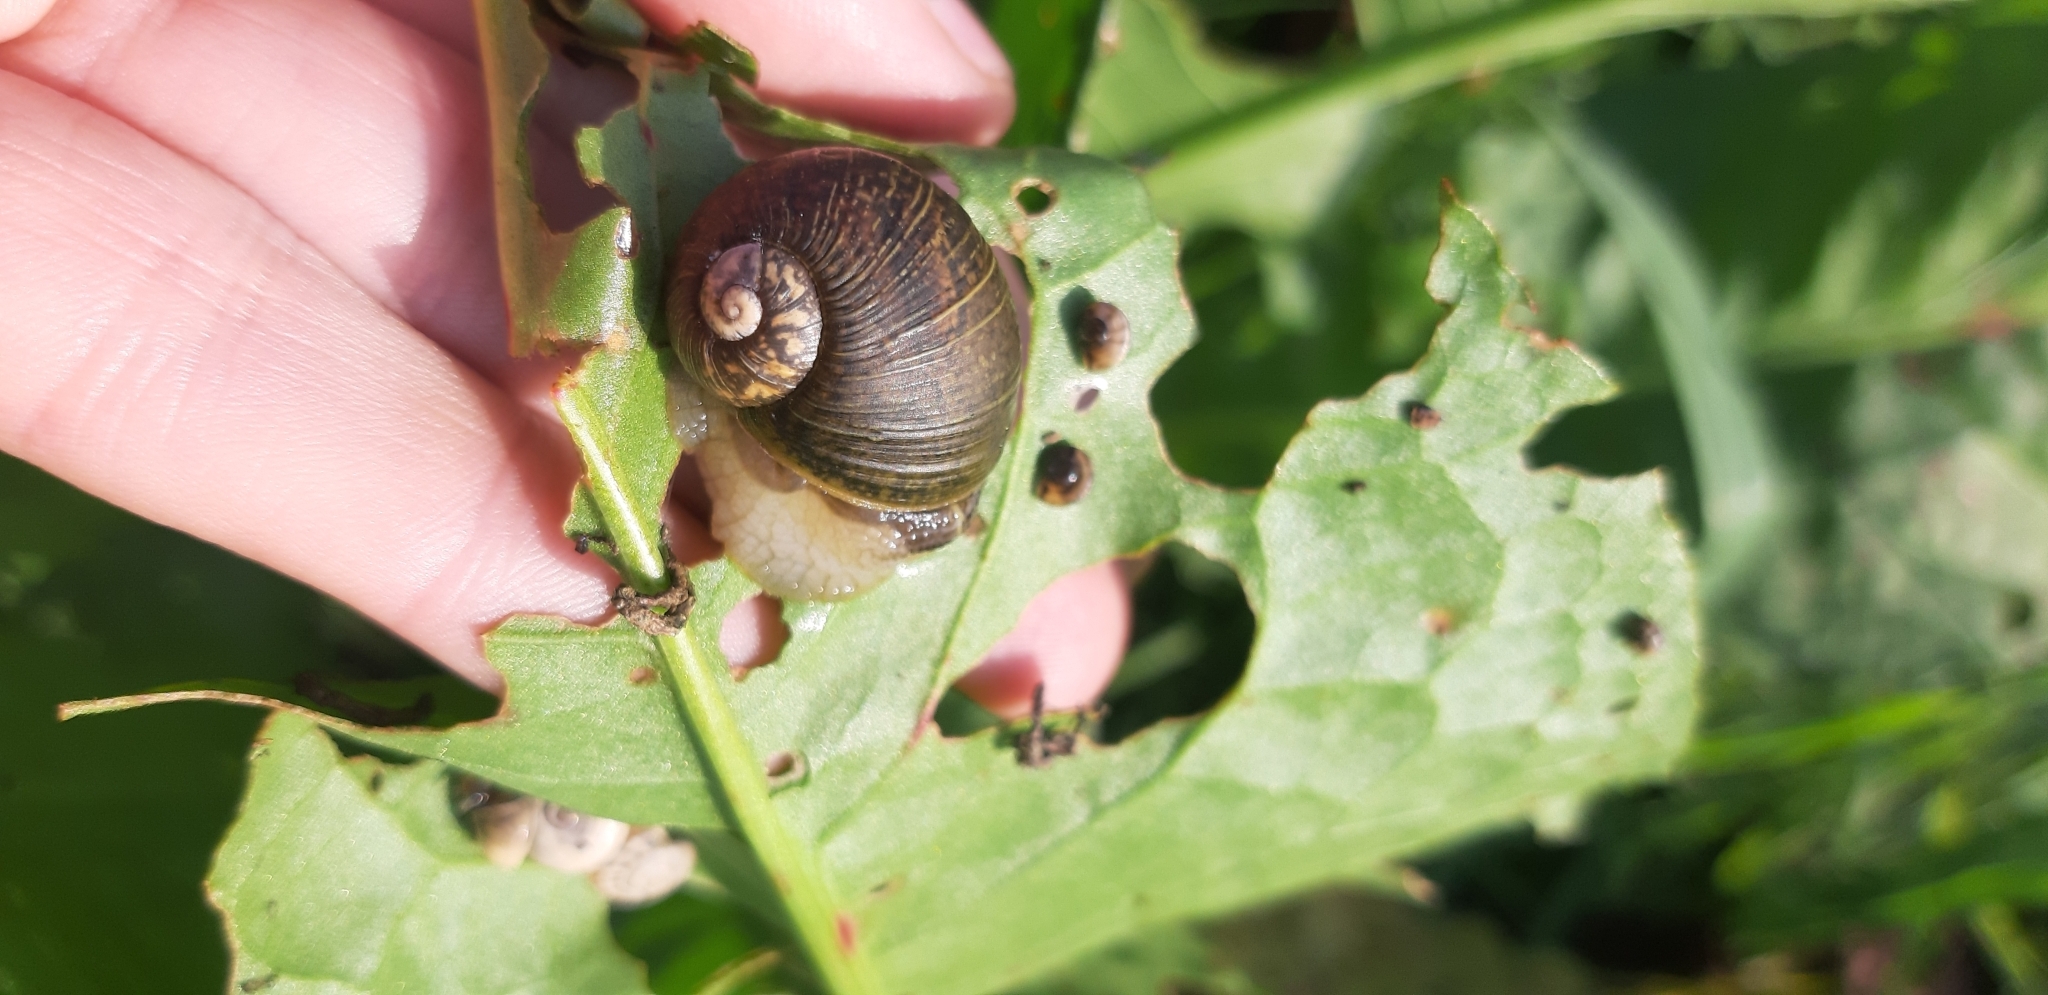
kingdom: Animalia
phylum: Mollusca
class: Gastropoda
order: Stylommatophora
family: Helicidae
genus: Cantareus
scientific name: Cantareus apertus
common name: Green gardensnail
